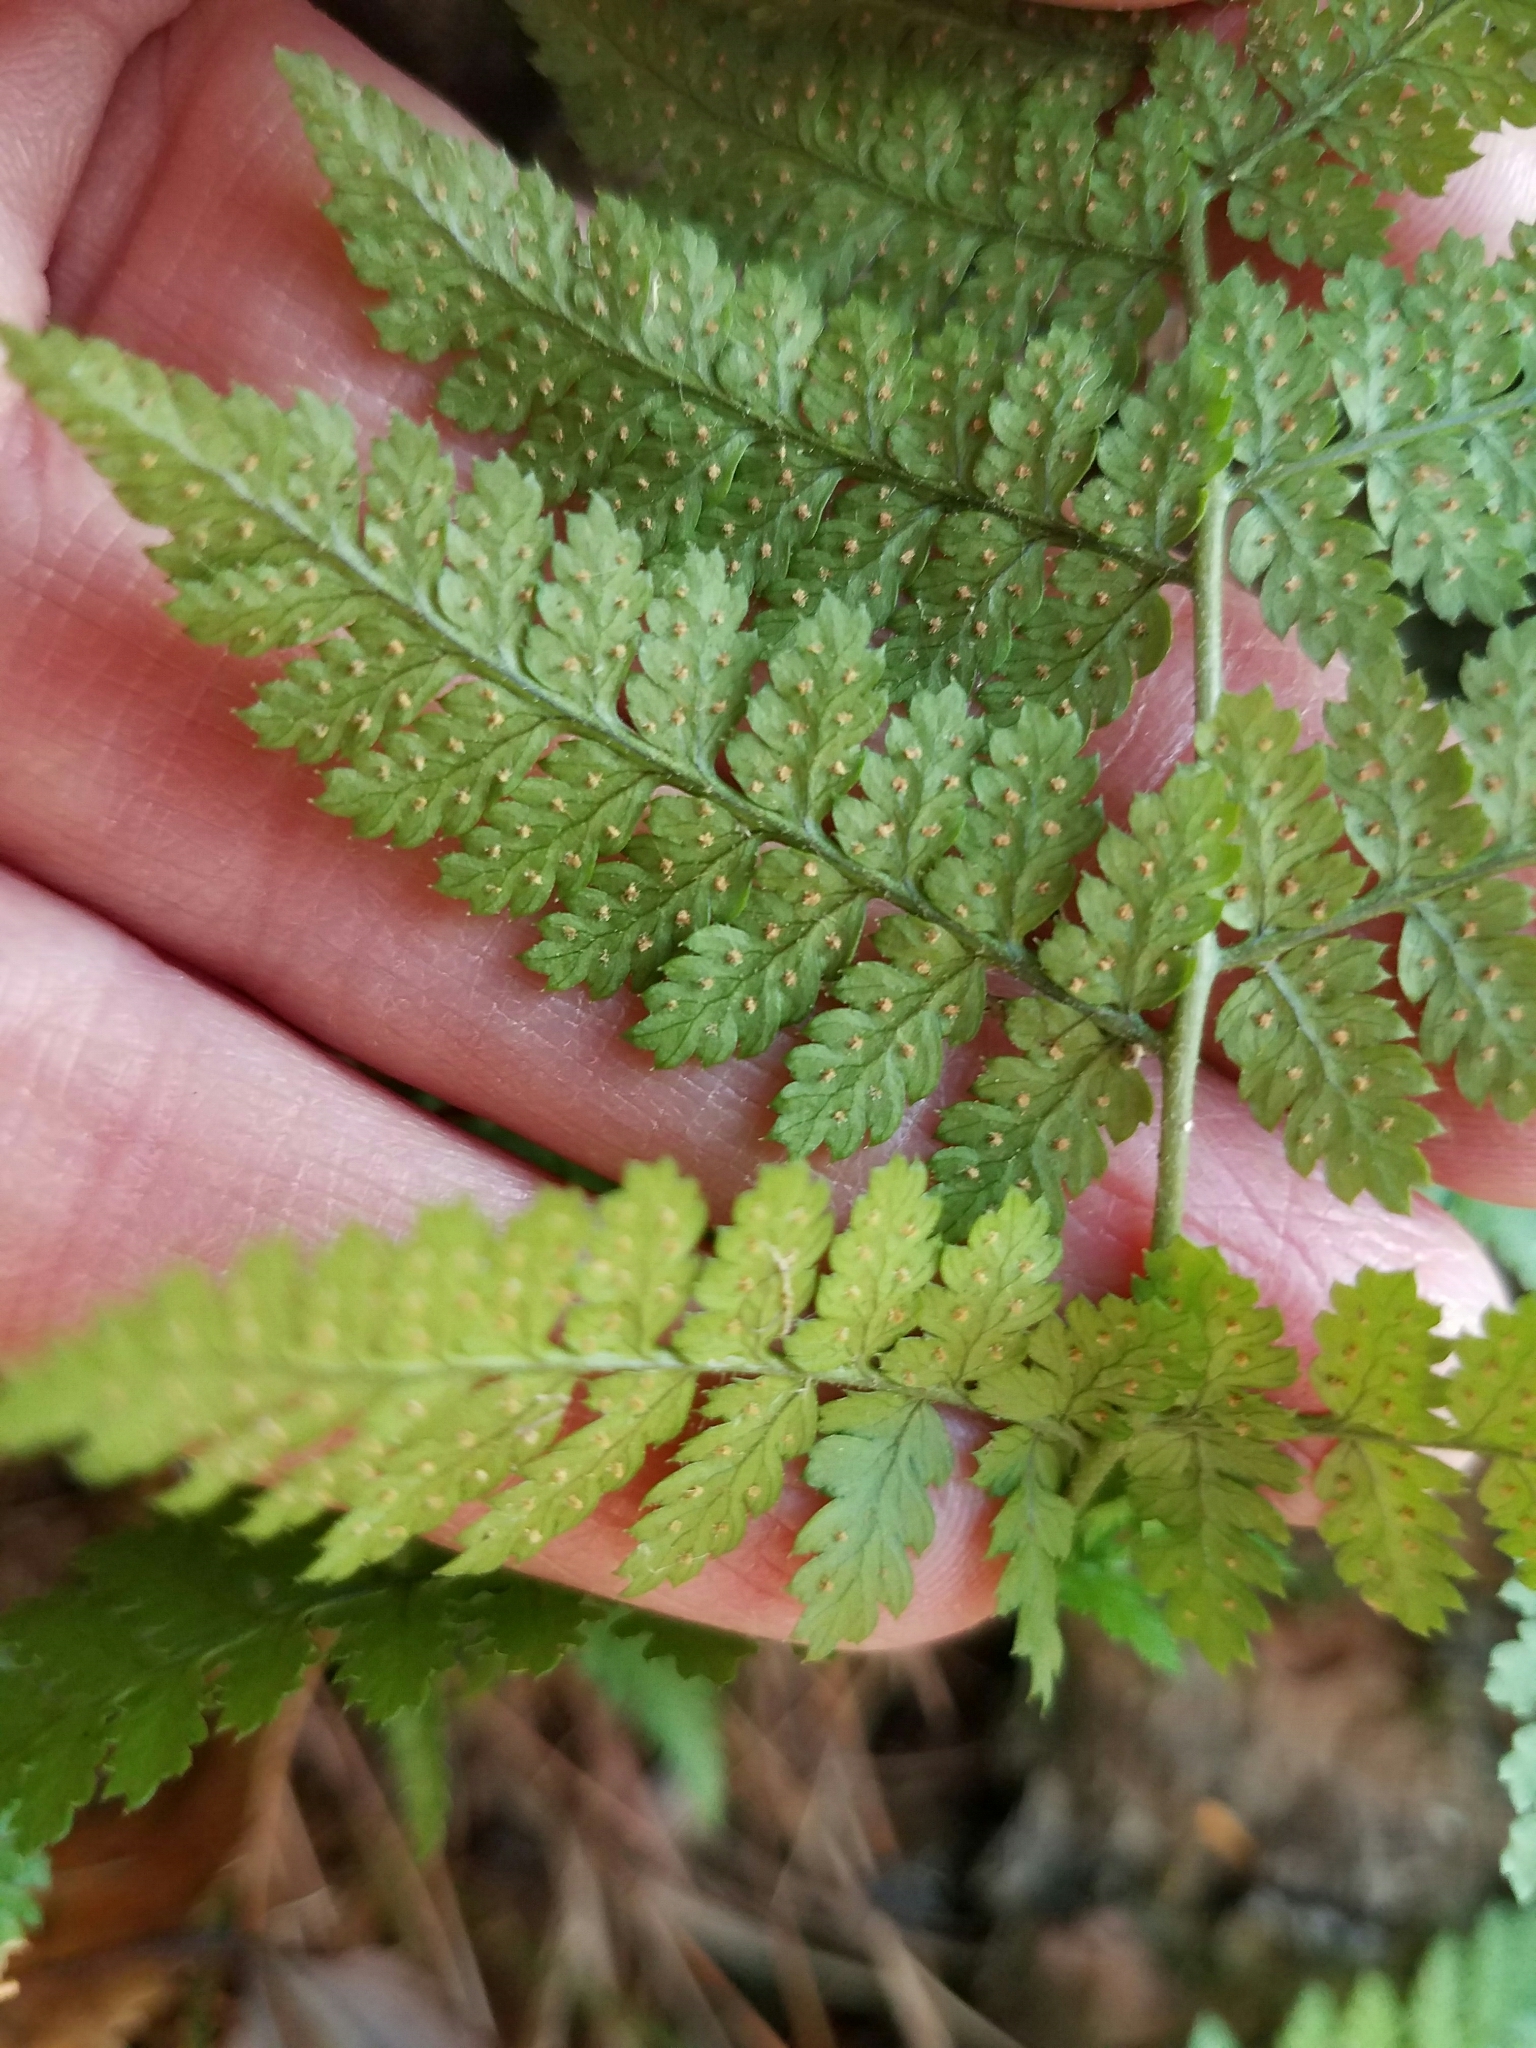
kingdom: Plantae
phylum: Tracheophyta
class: Polypodiopsida
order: Polypodiales
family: Dryopteridaceae
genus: Dryopteris
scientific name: Dryopteris intermedia
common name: Evergreen wood fern
